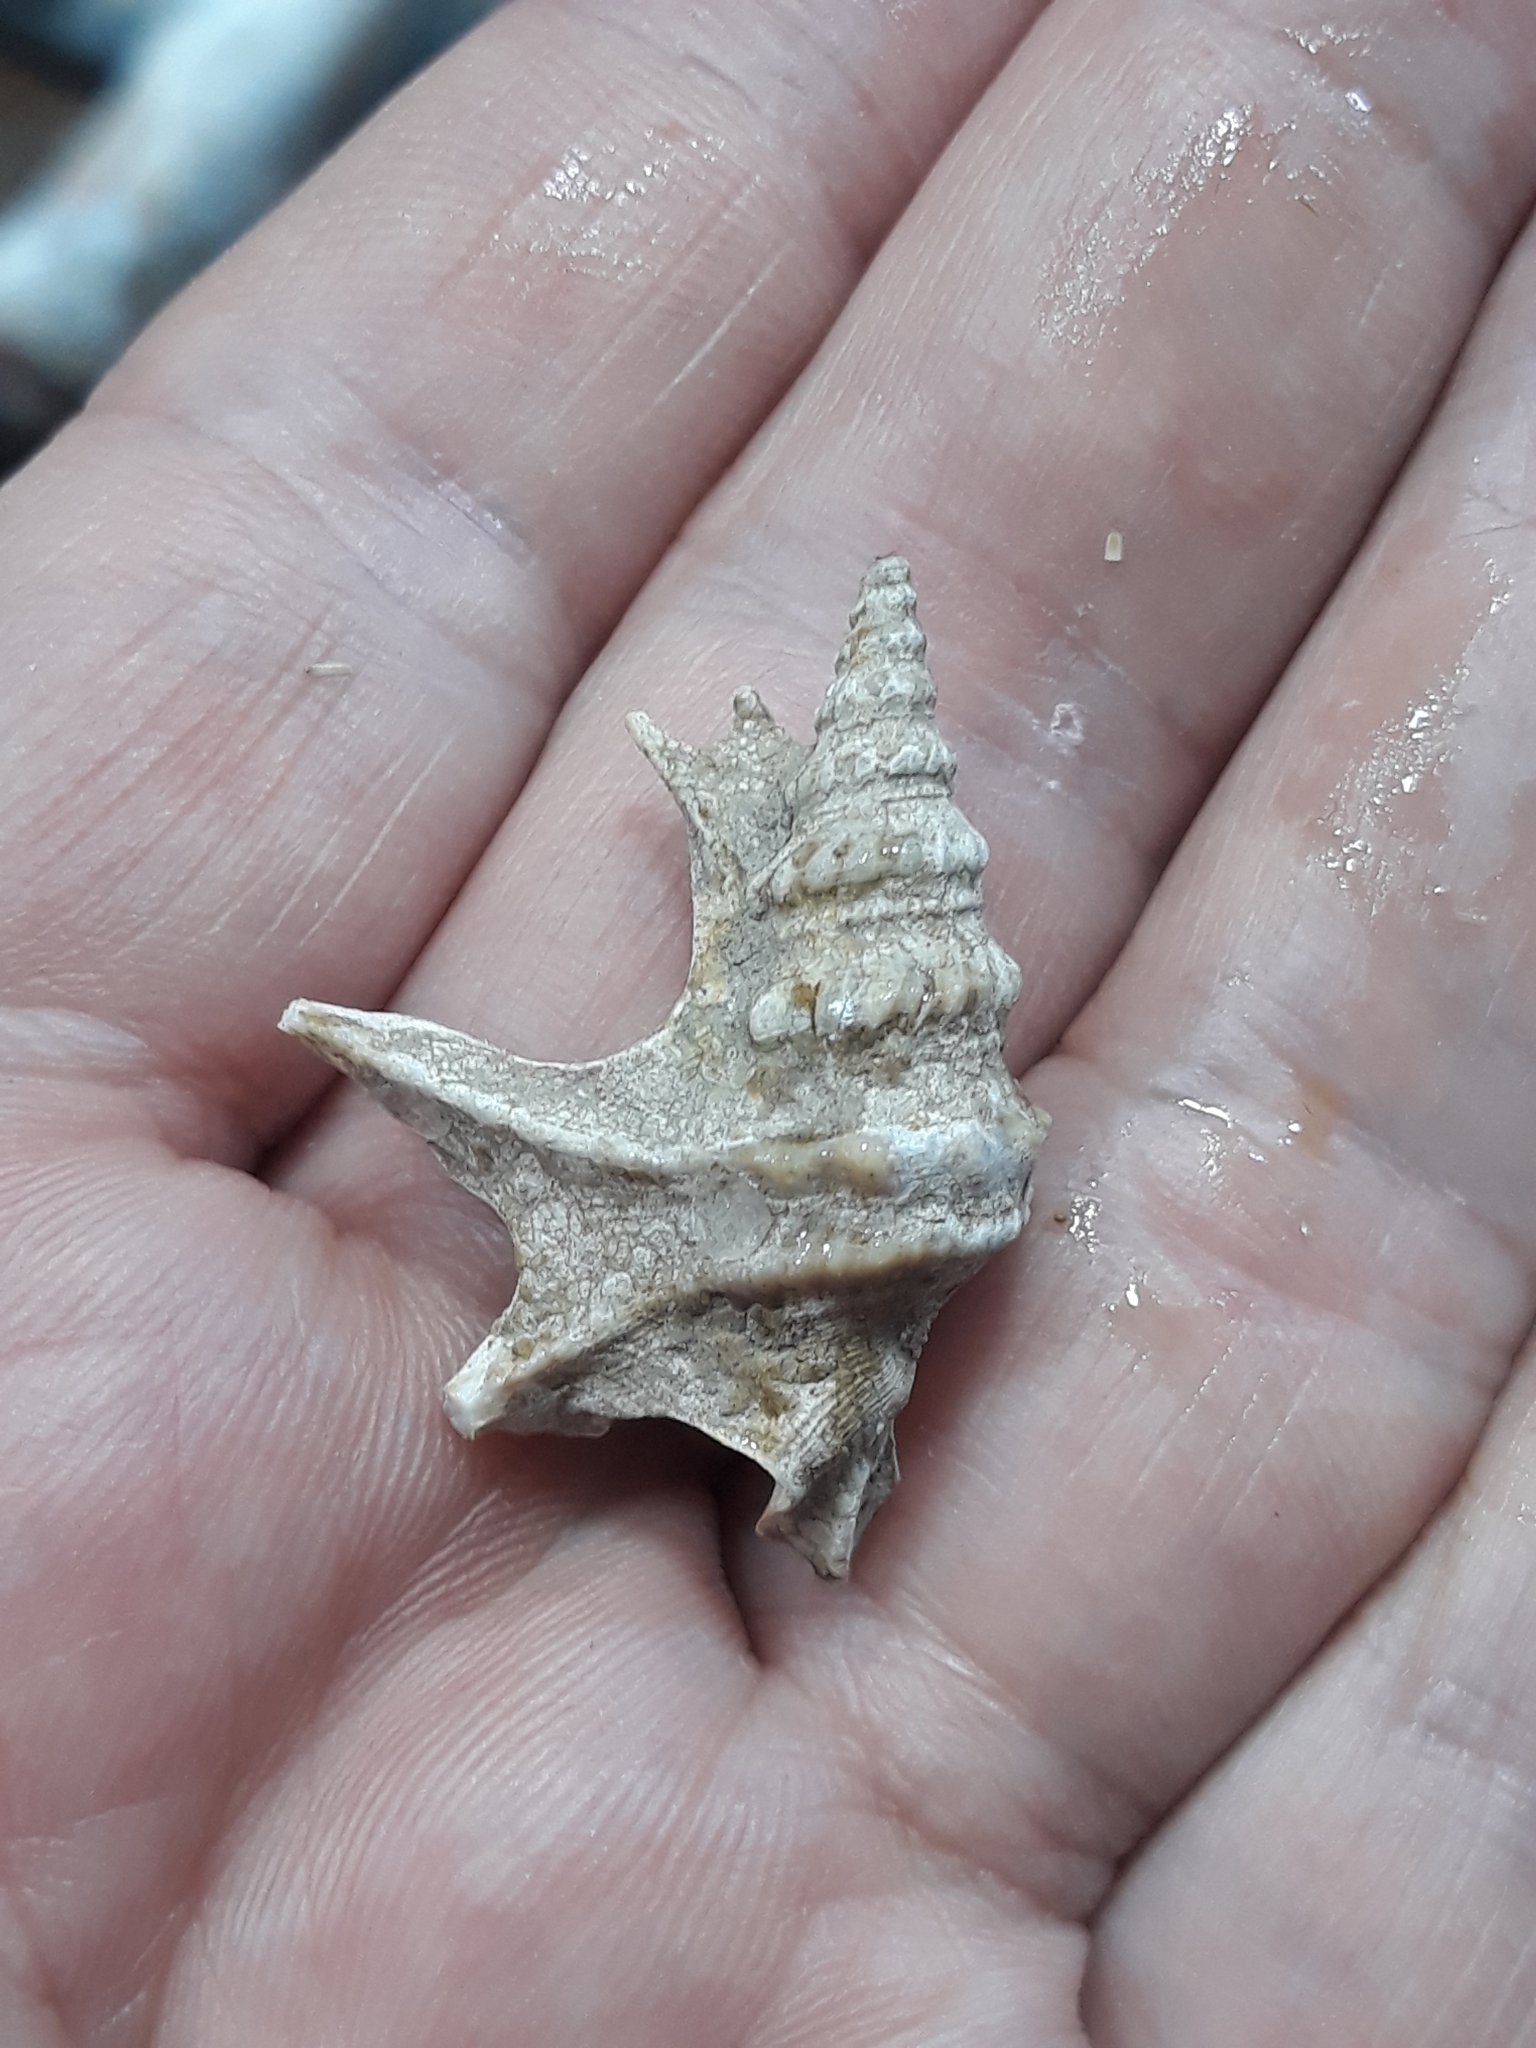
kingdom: Animalia
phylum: Mollusca
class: Gastropoda
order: Littorinimorpha
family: Aporrhaidae
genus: Aporrhais
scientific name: Aporrhais pespelecani
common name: Common pelican’s foot
